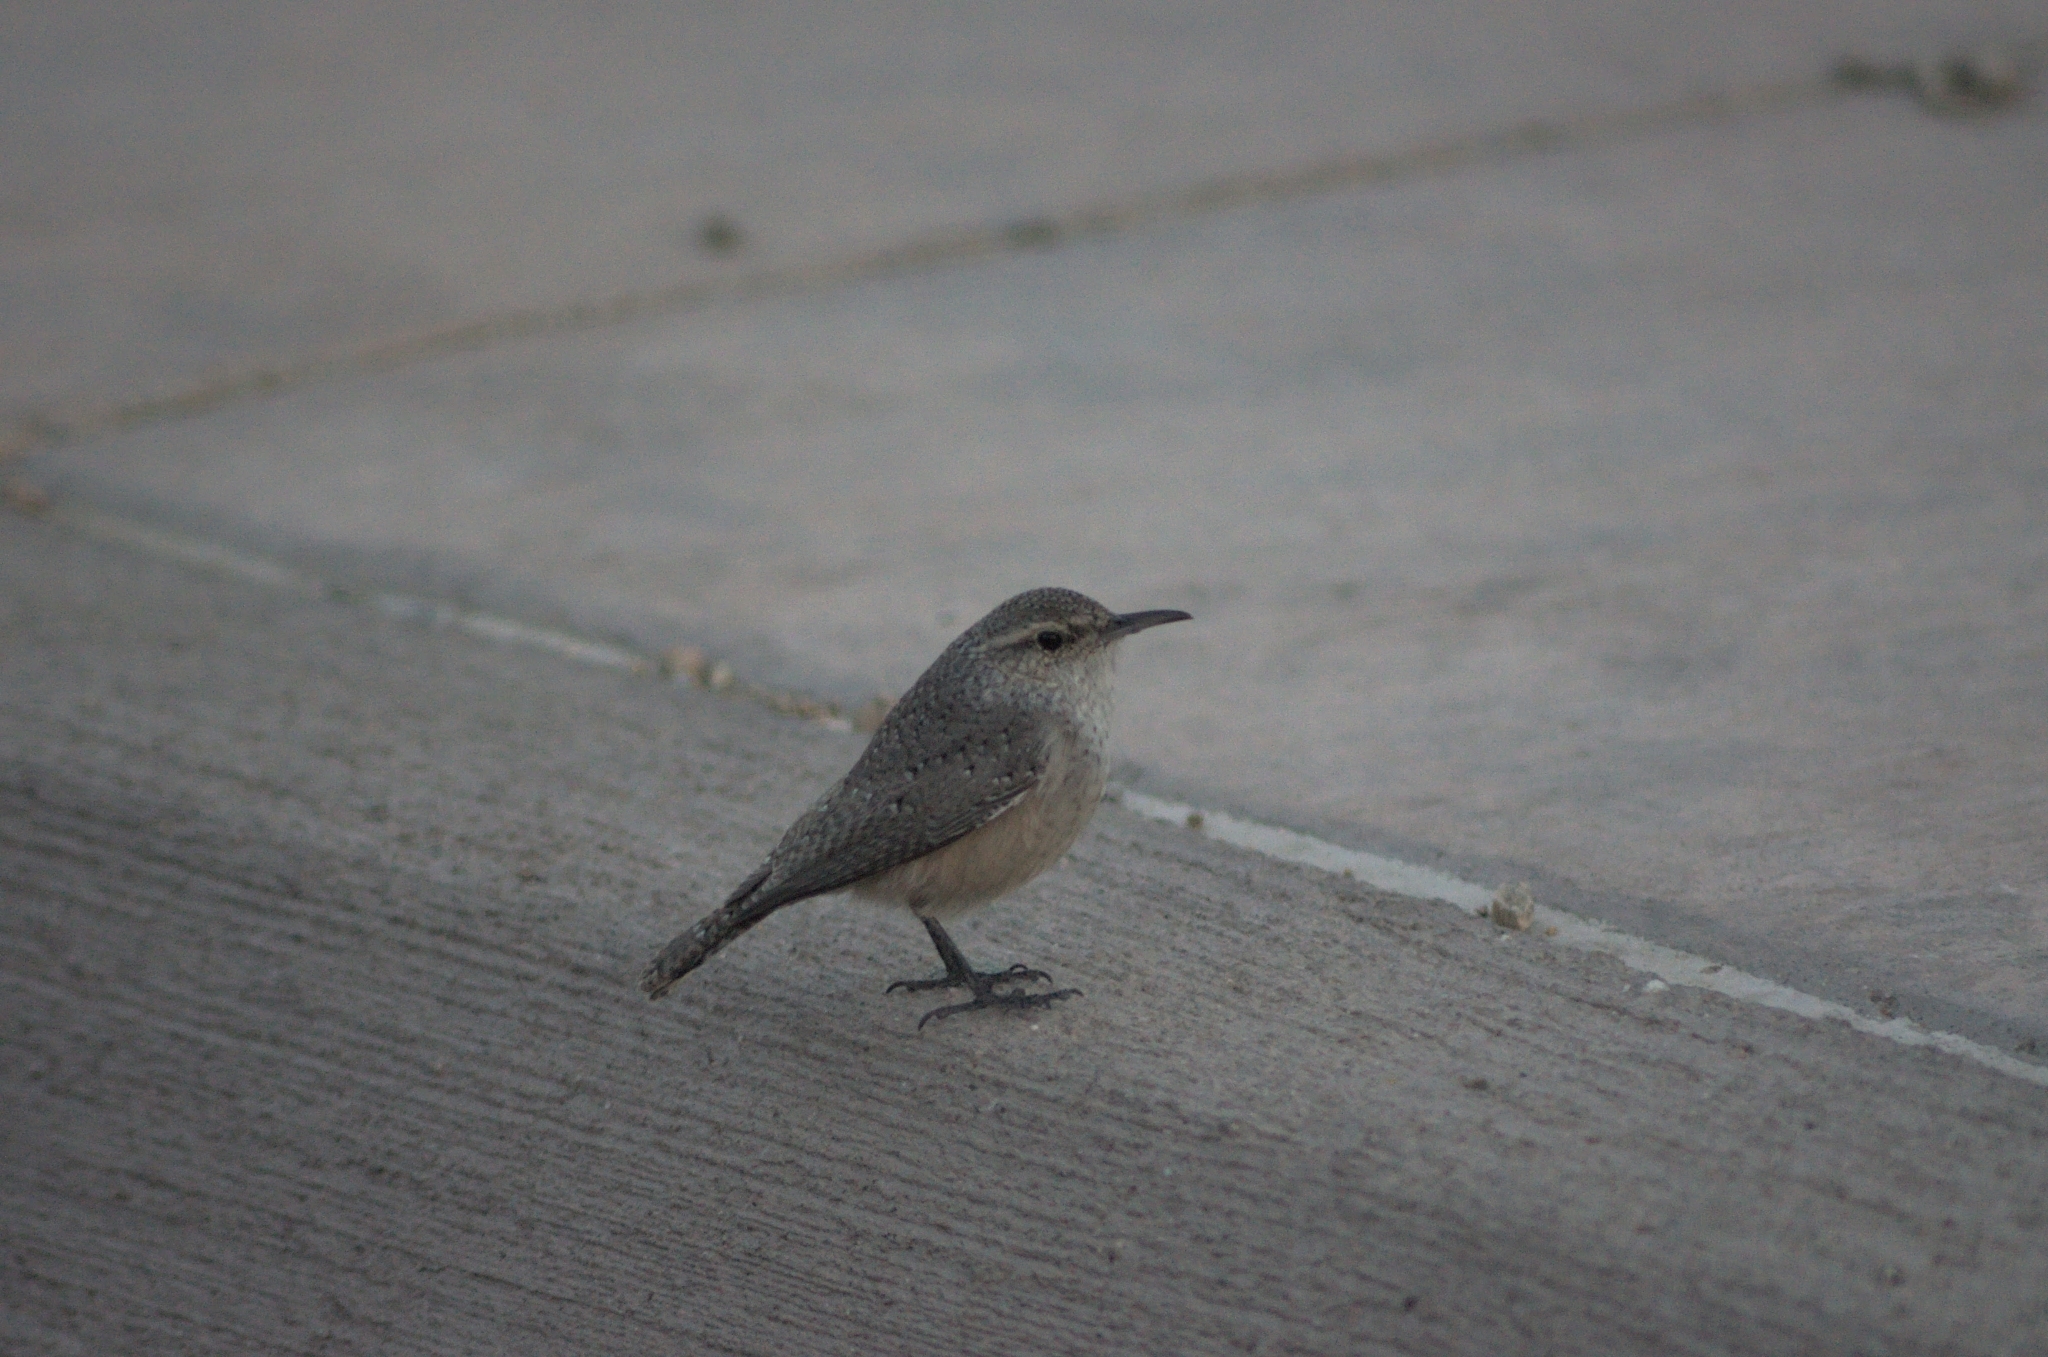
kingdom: Animalia
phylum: Chordata
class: Aves
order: Passeriformes
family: Troglodytidae
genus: Salpinctes
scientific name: Salpinctes obsoletus
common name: Rock wren
